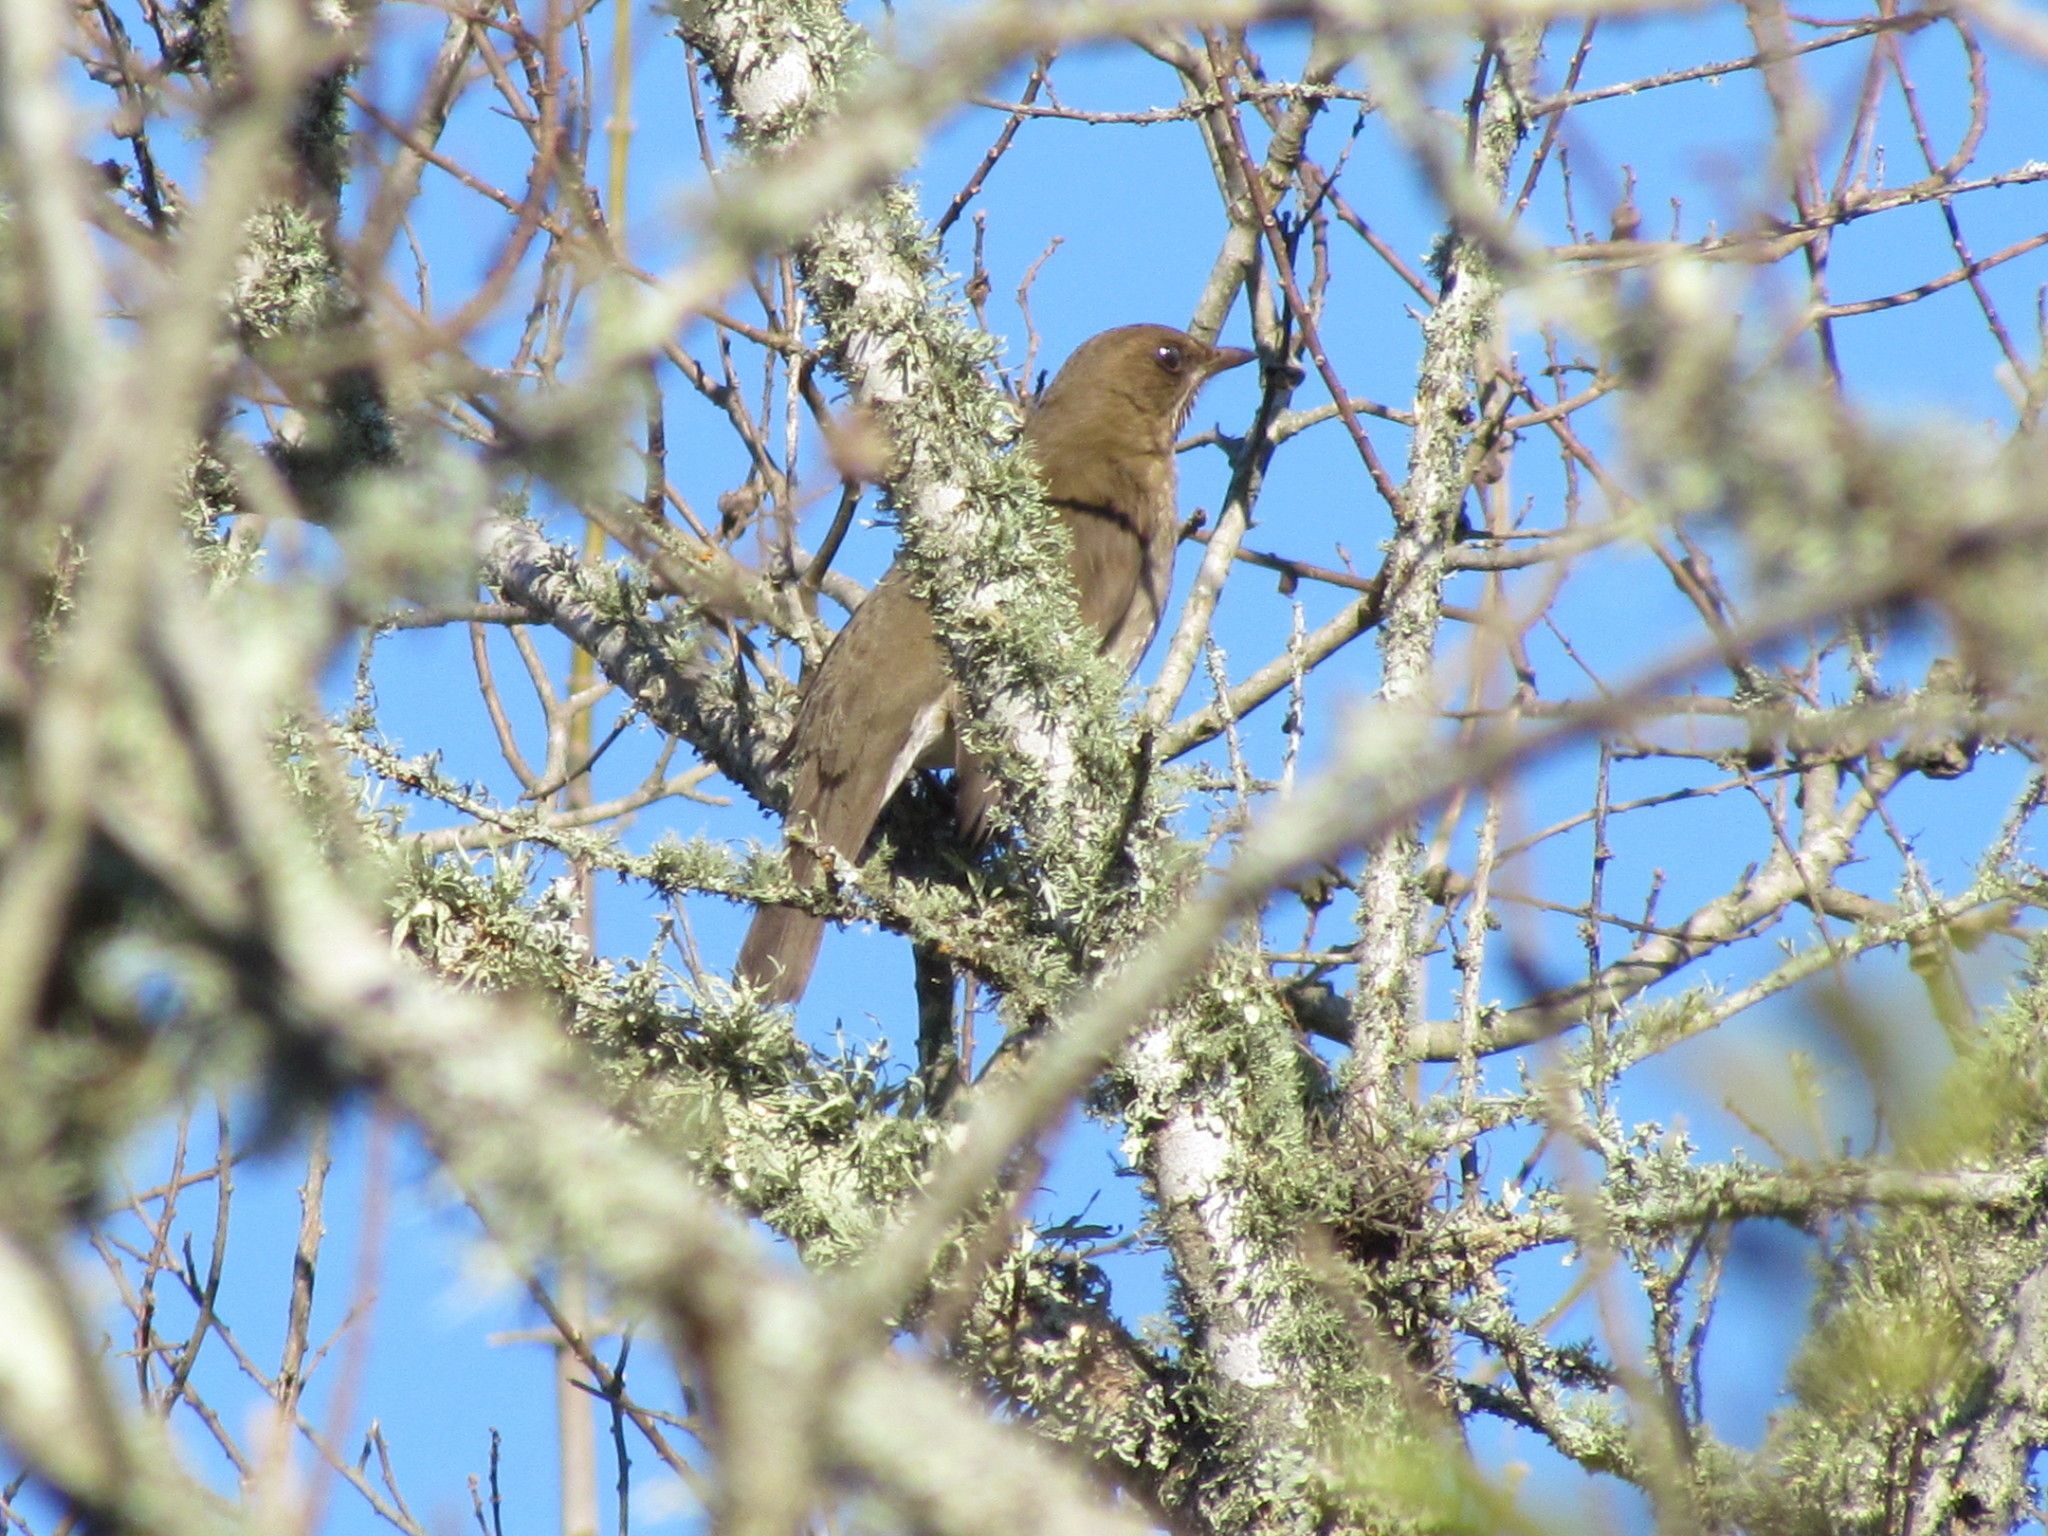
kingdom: Animalia
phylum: Chordata
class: Aves
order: Passeriformes
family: Turdidae
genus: Turdus
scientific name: Turdus amaurochalinus
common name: Creamy-bellied thrush
